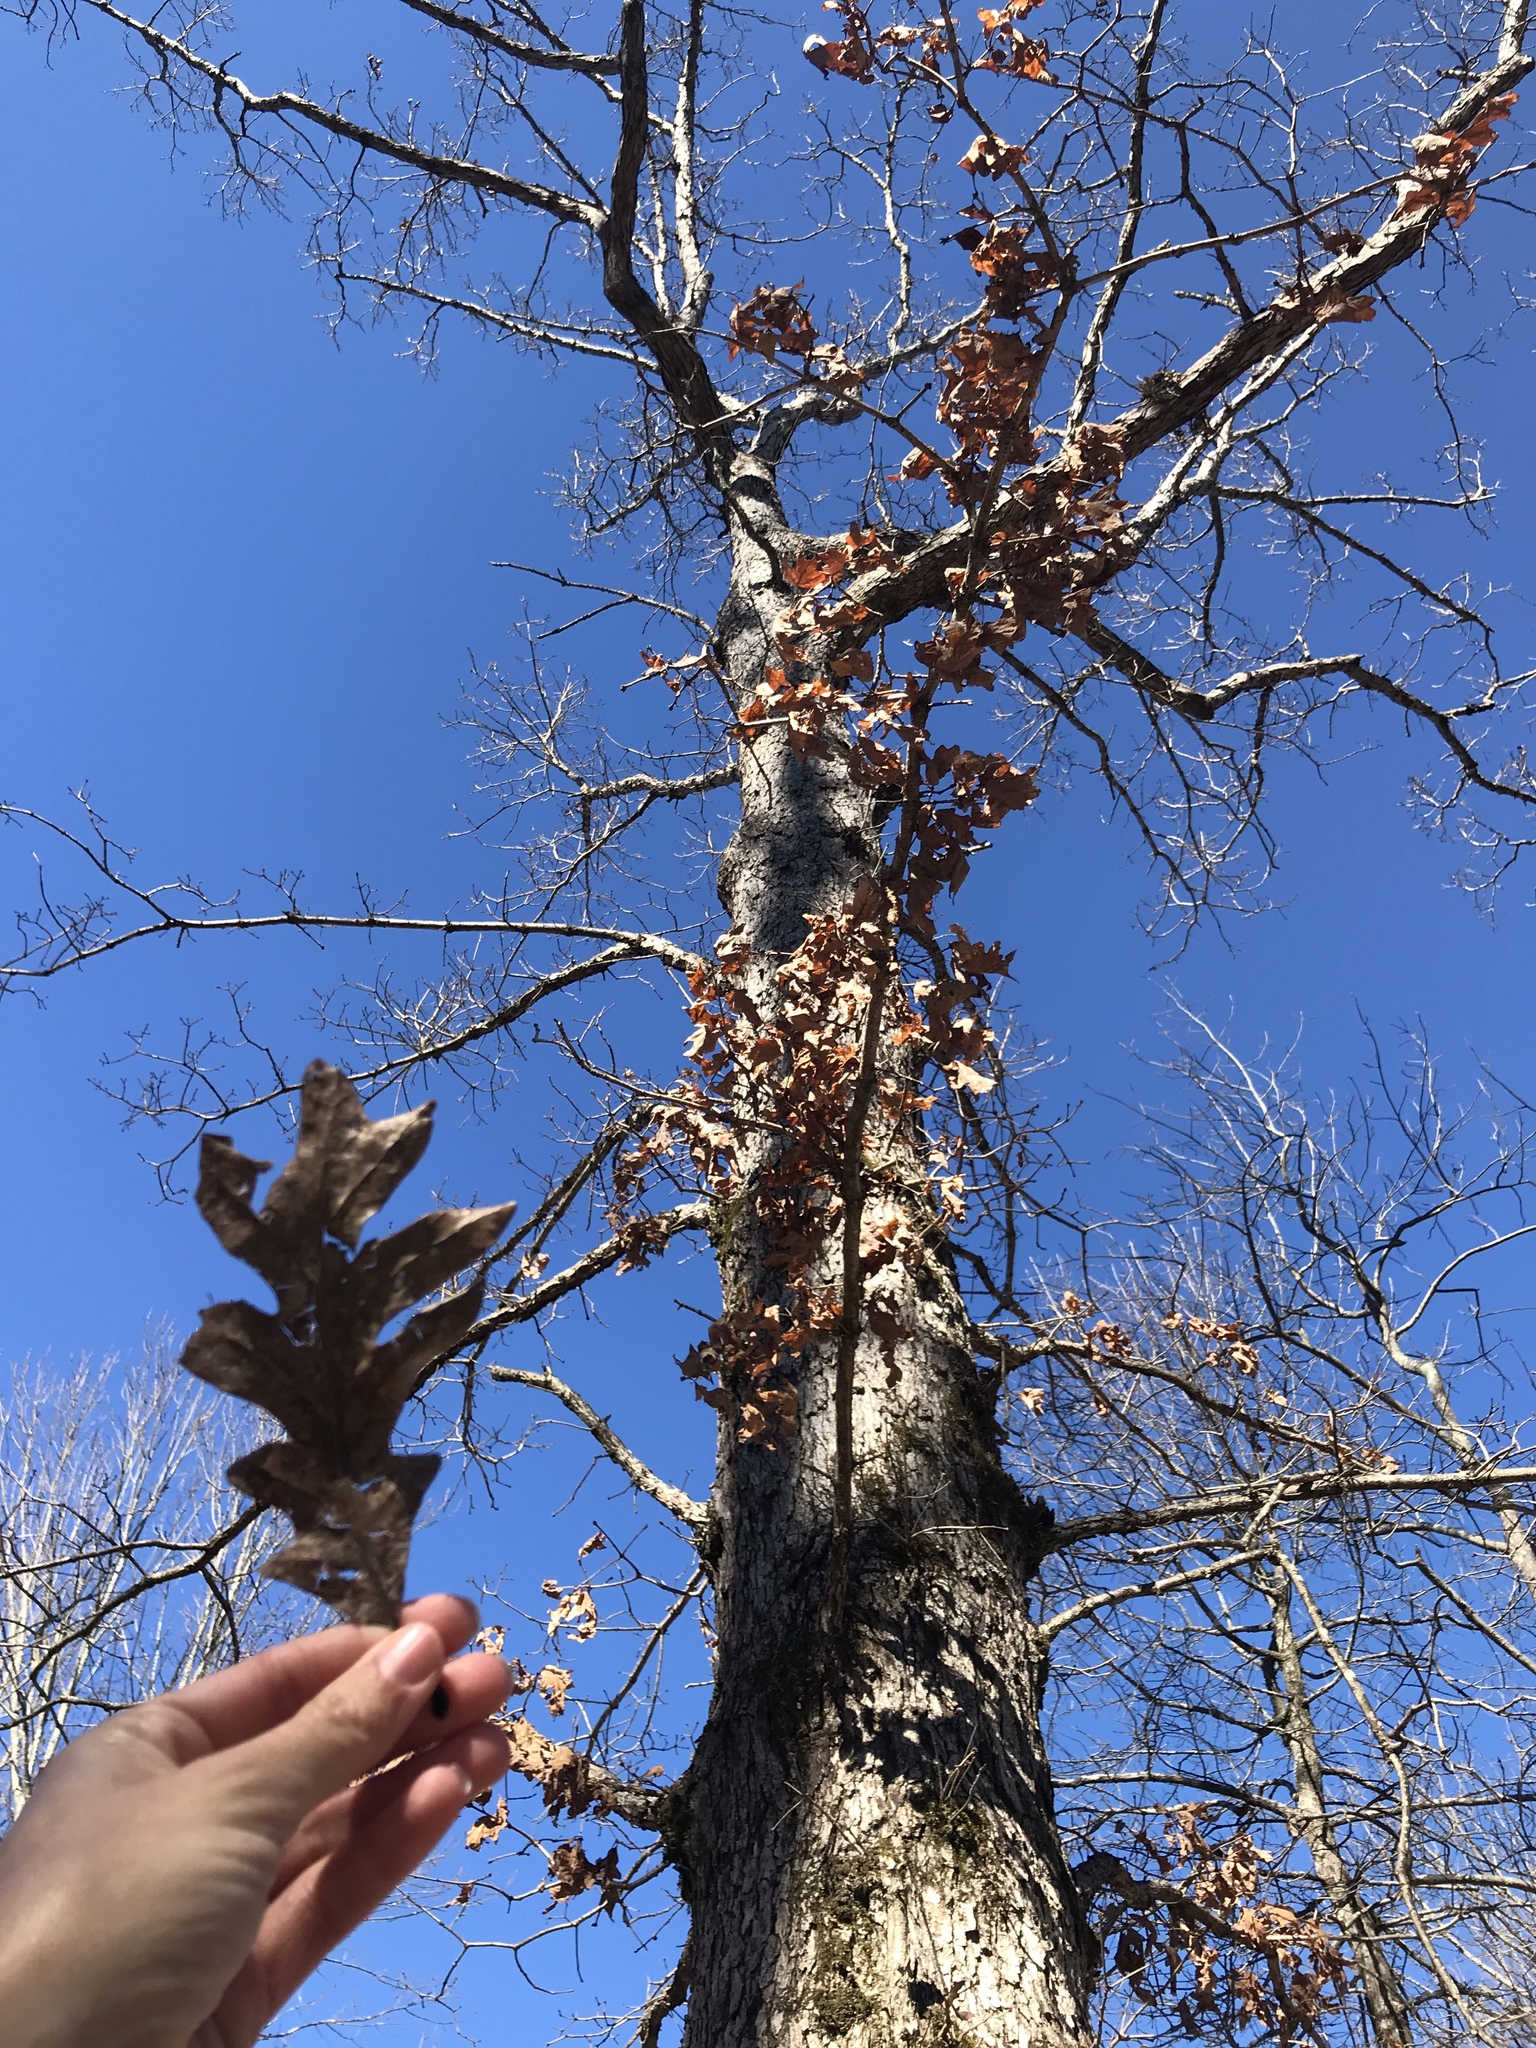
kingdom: Plantae
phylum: Tracheophyta
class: Magnoliopsida
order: Fagales
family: Fagaceae
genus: Quercus
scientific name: Quercus alba
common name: White oak
